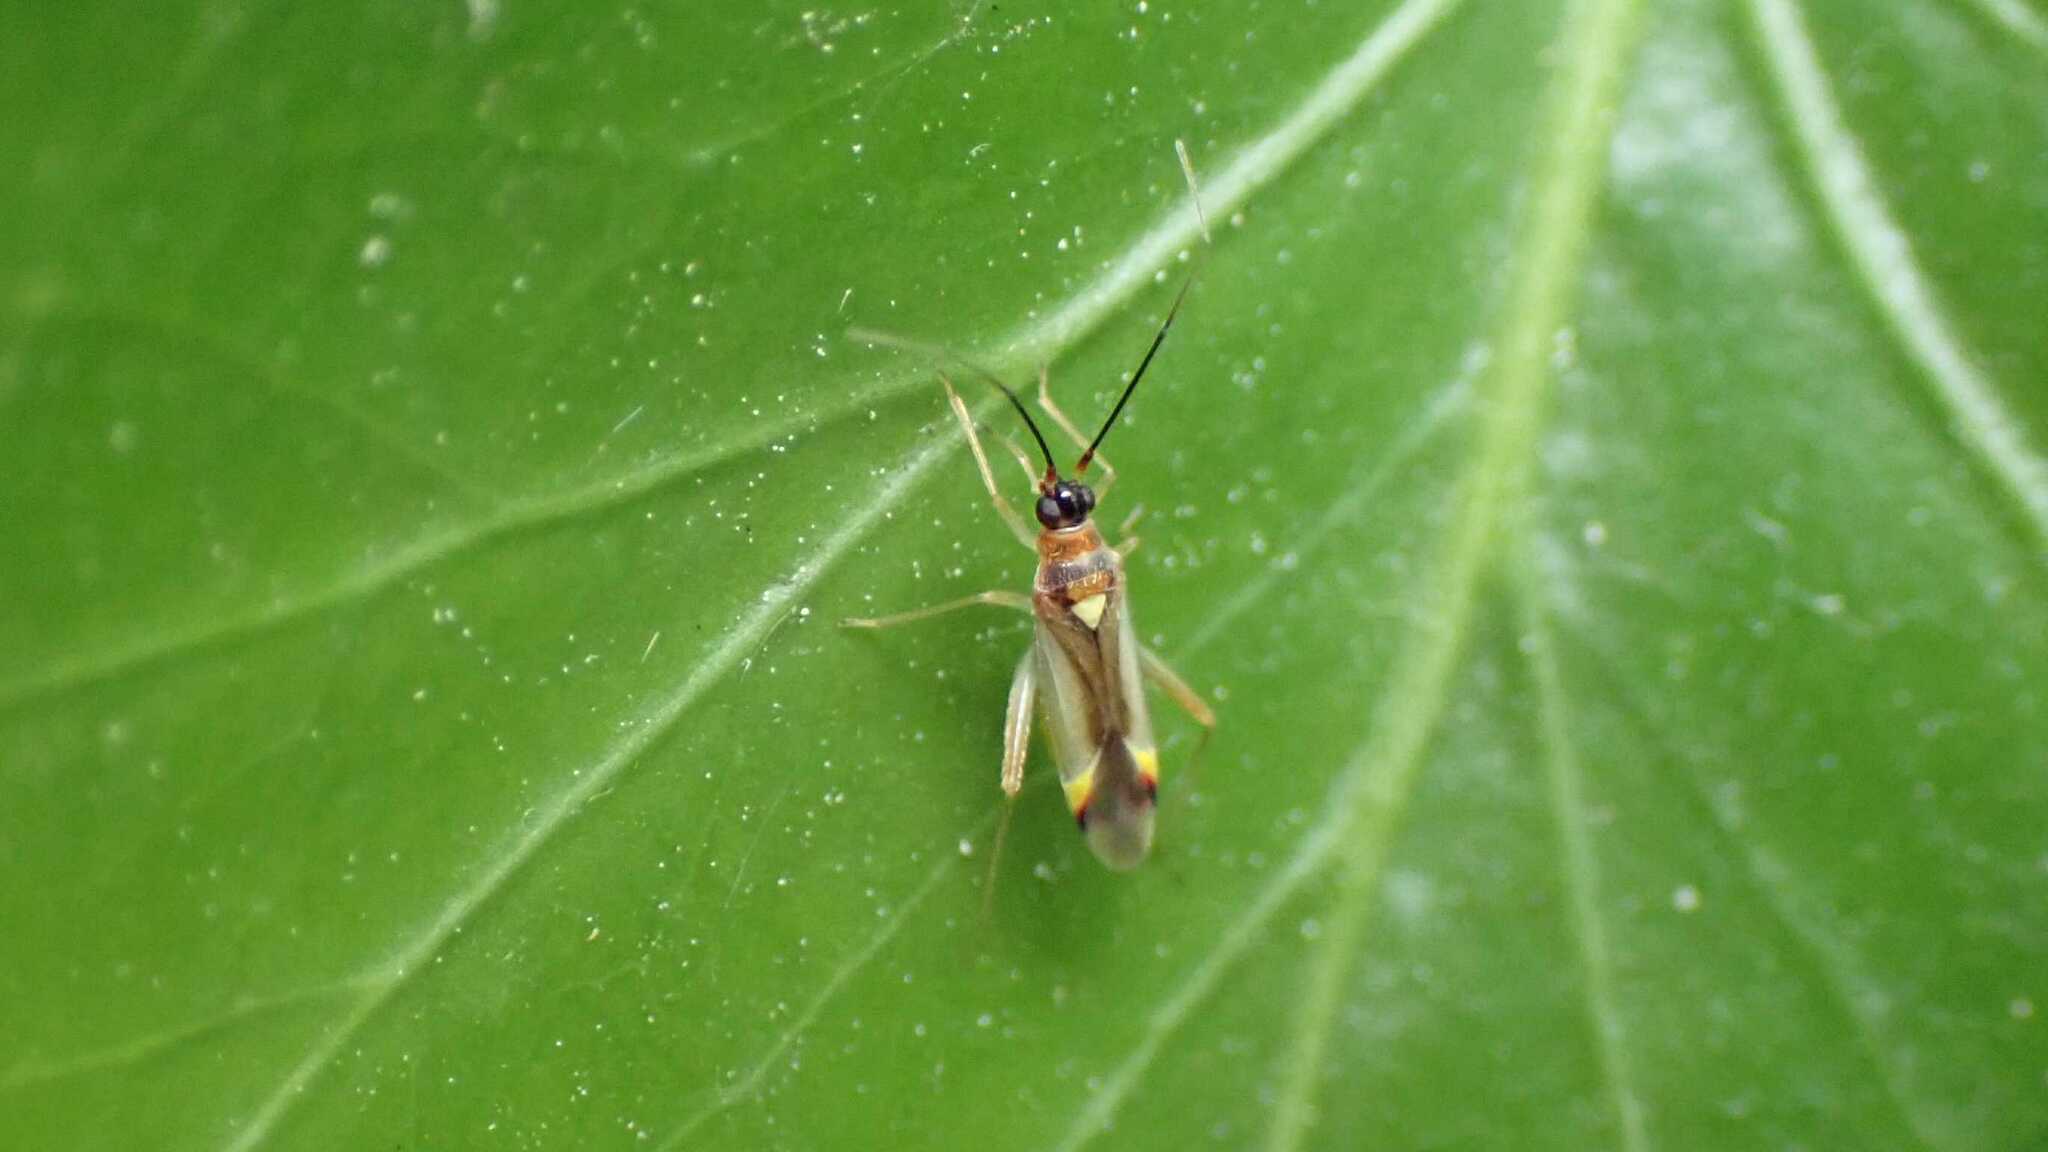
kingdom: Animalia
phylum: Arthropoda
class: Insecta
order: Hemiptera
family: Miridae
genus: Campyloneura
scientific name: Campyloneura virgula
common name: Predatory bug
